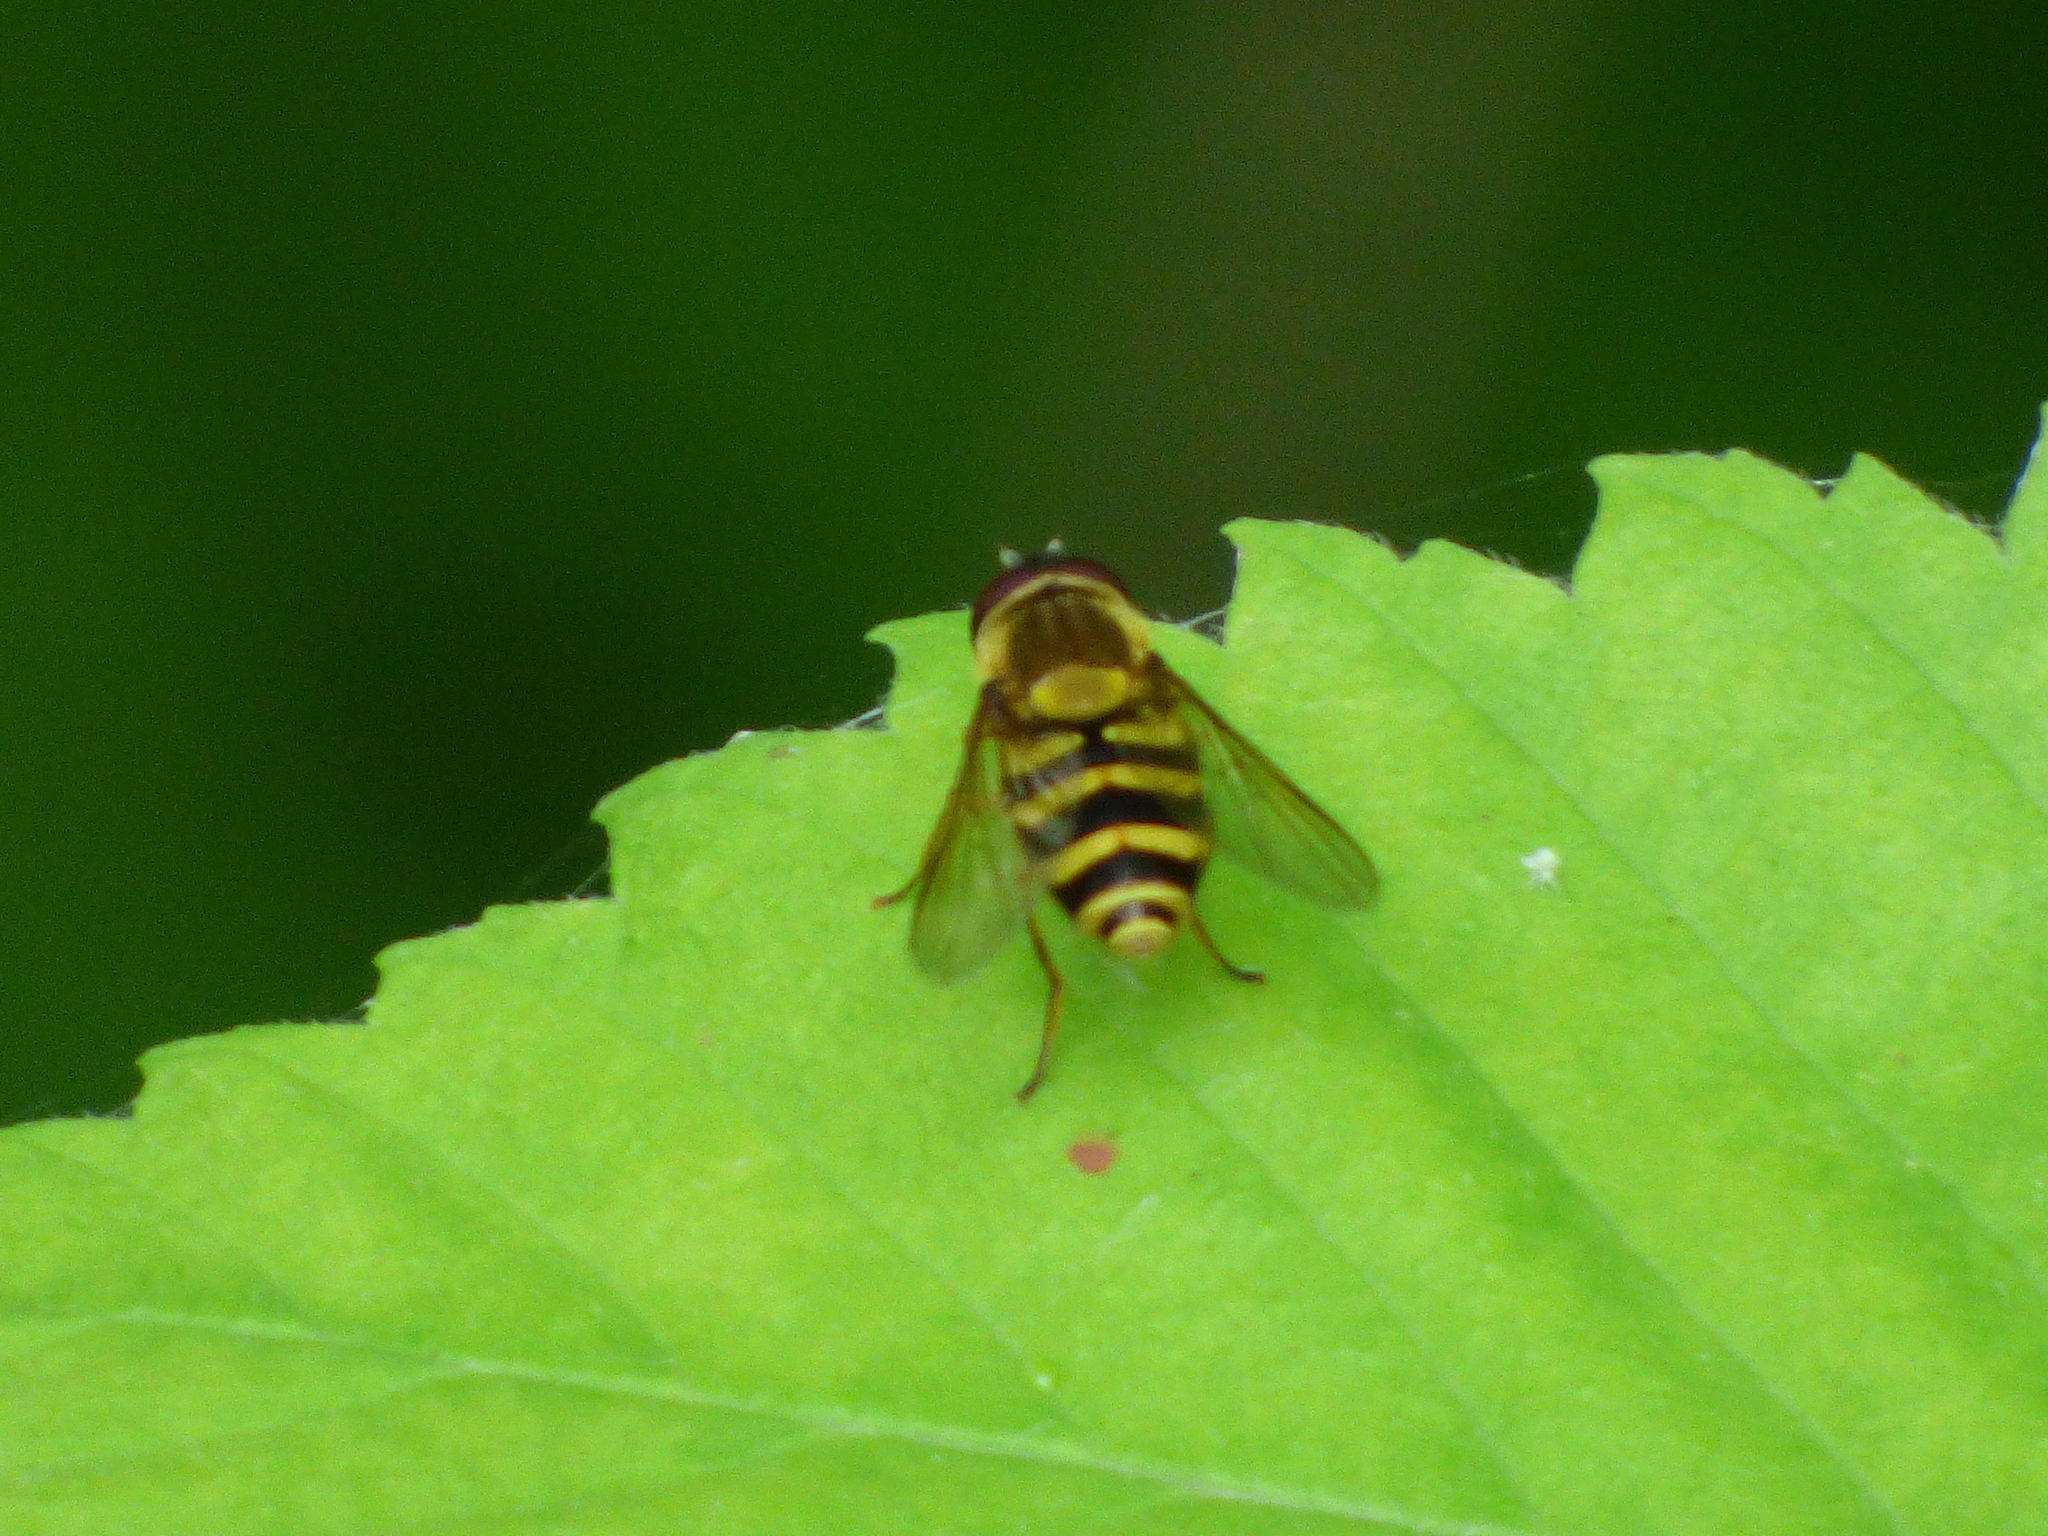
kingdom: Animalia
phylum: Arthropoda
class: Insecta
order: Diptera
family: Syrphidae
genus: Syrphus
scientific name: Syrphus
